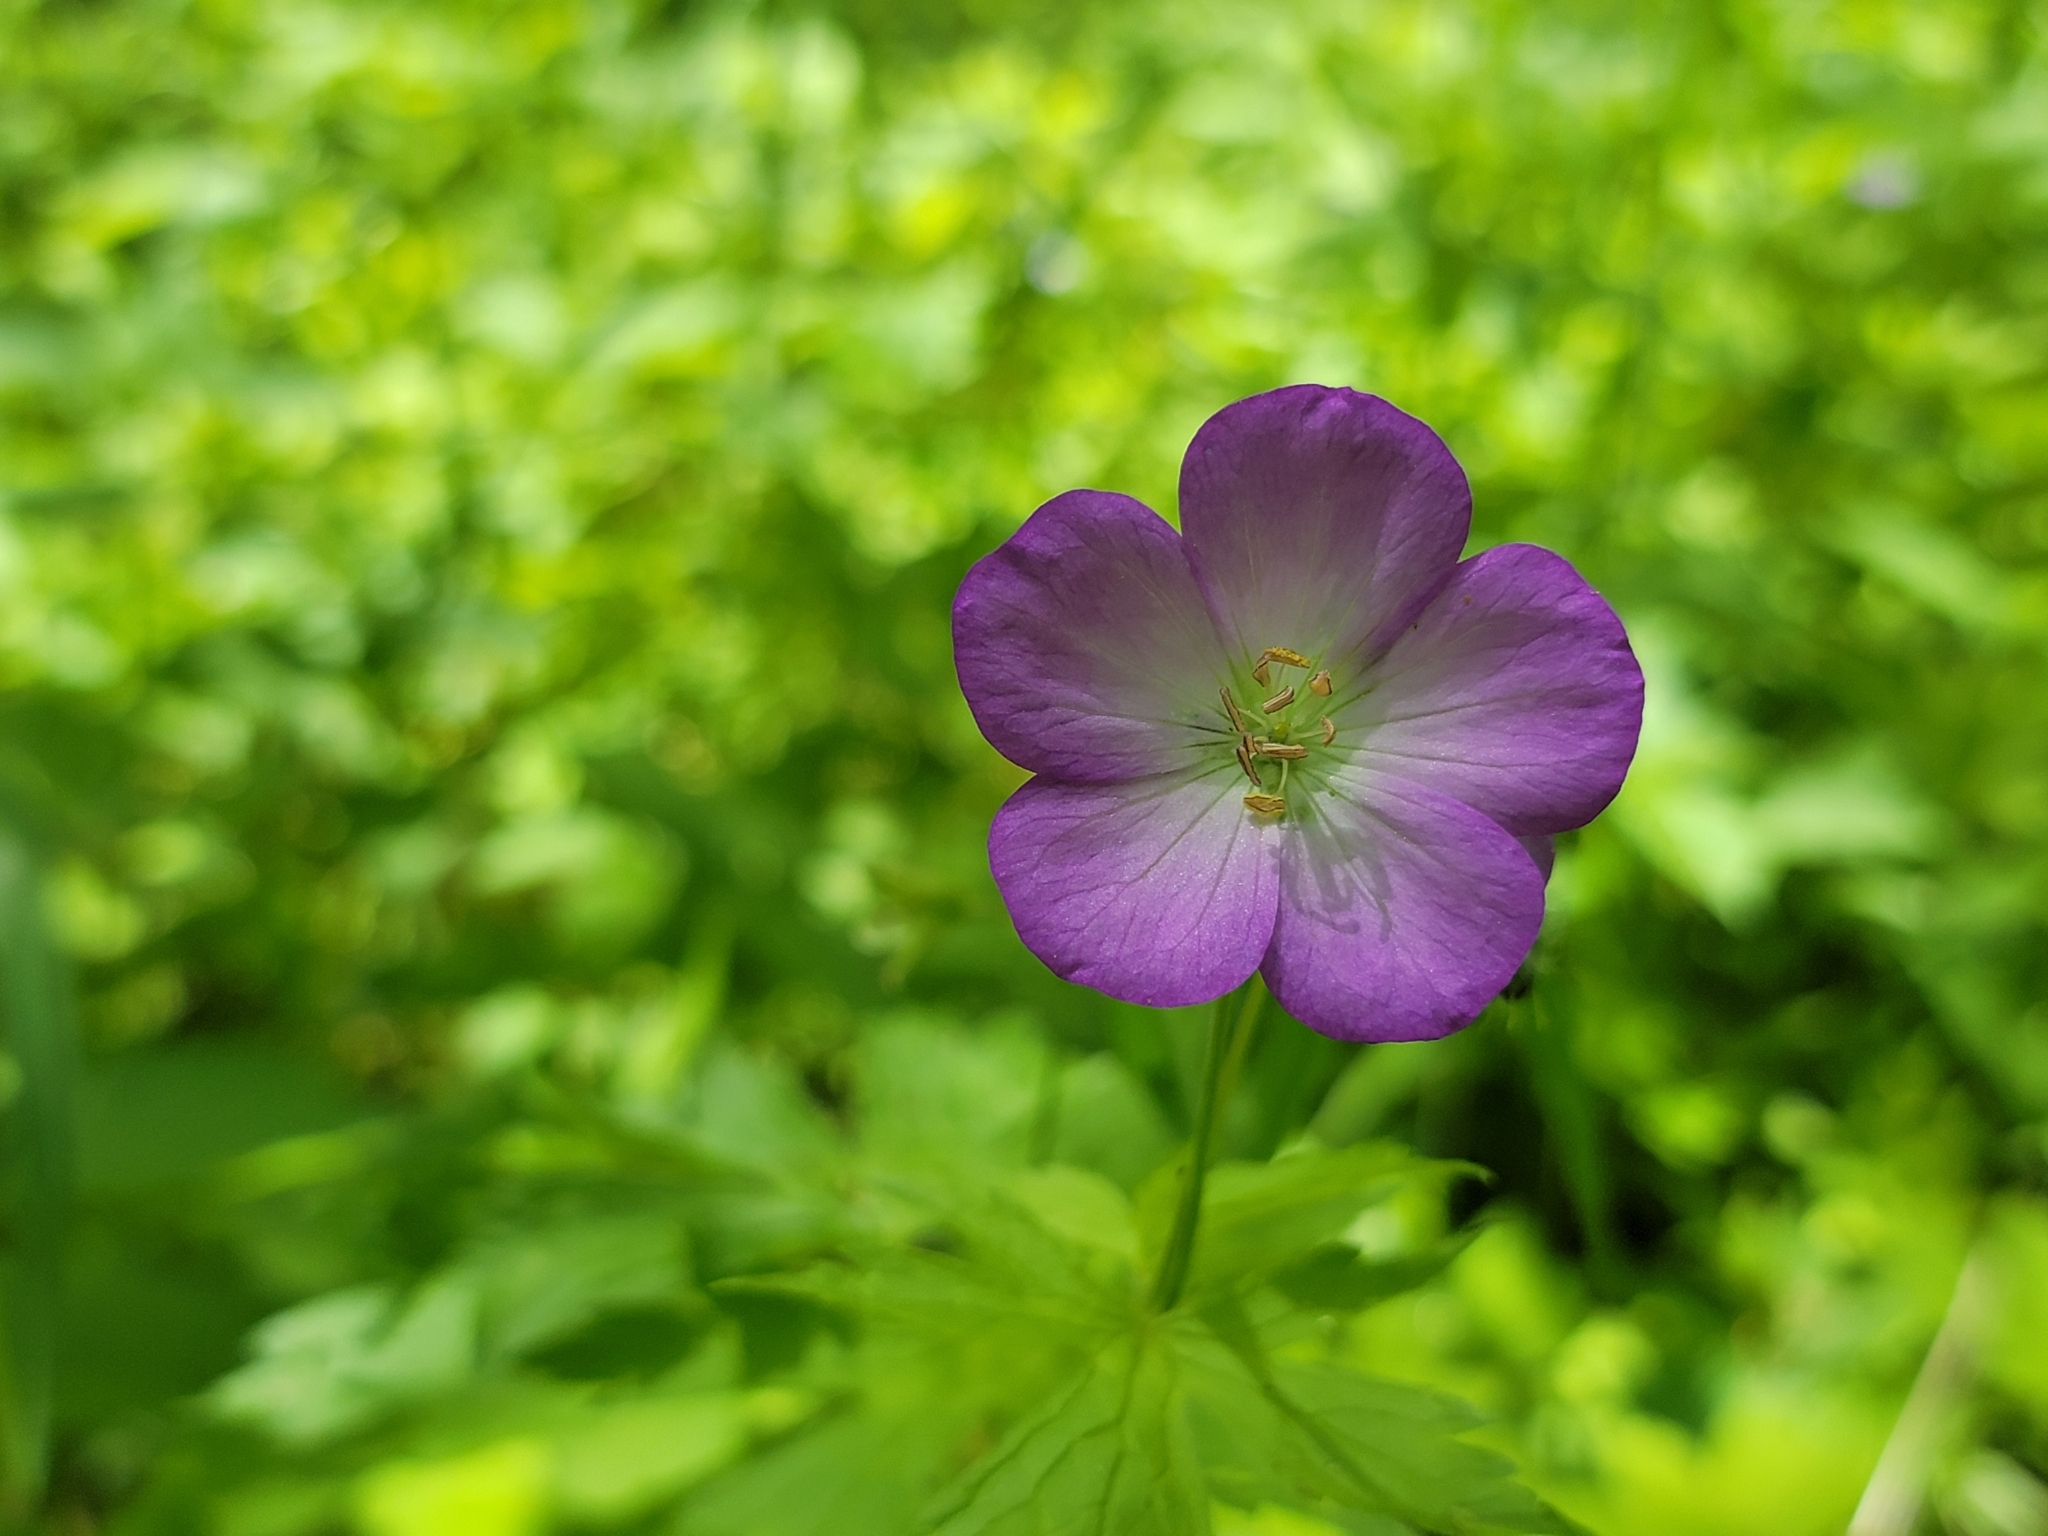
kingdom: Plantae
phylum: Tracheophyta
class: Magnoliopsida
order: Geraniales
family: Geraniaceae
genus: Geranium
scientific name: Geranium maculatum
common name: Spotted geranium
